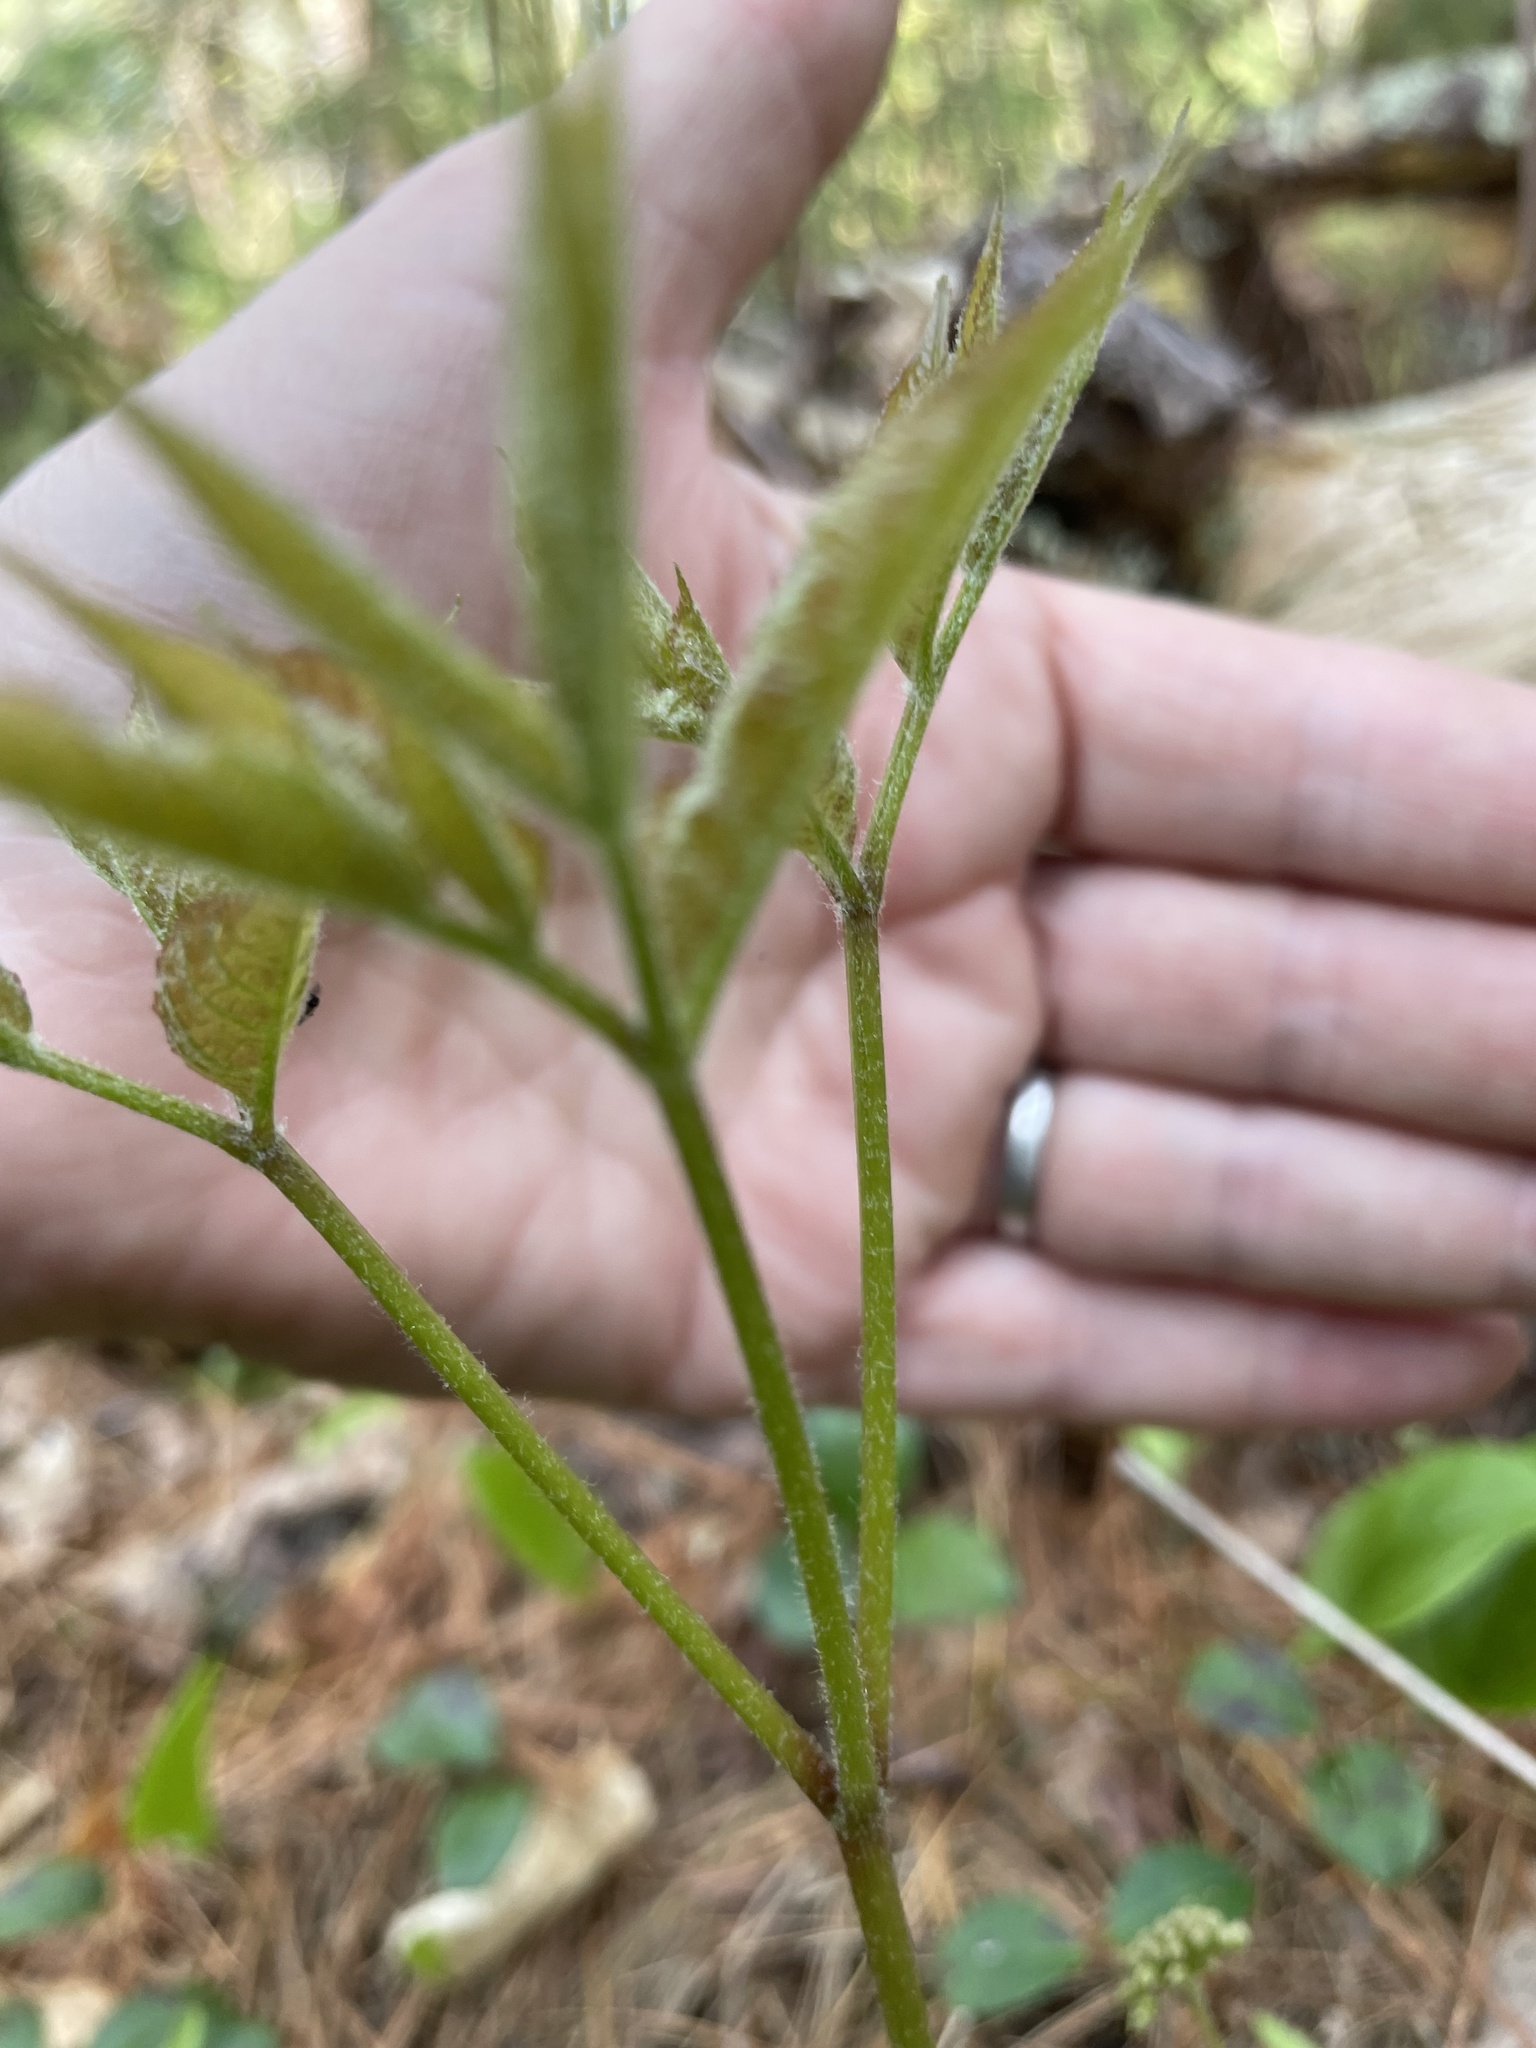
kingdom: Plantae
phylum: Tracheophyta
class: Magnoliopsida
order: Apiales
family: Araliaceae
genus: Aralia
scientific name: Aralia nudicaulis
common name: Wild sarsaparilla
